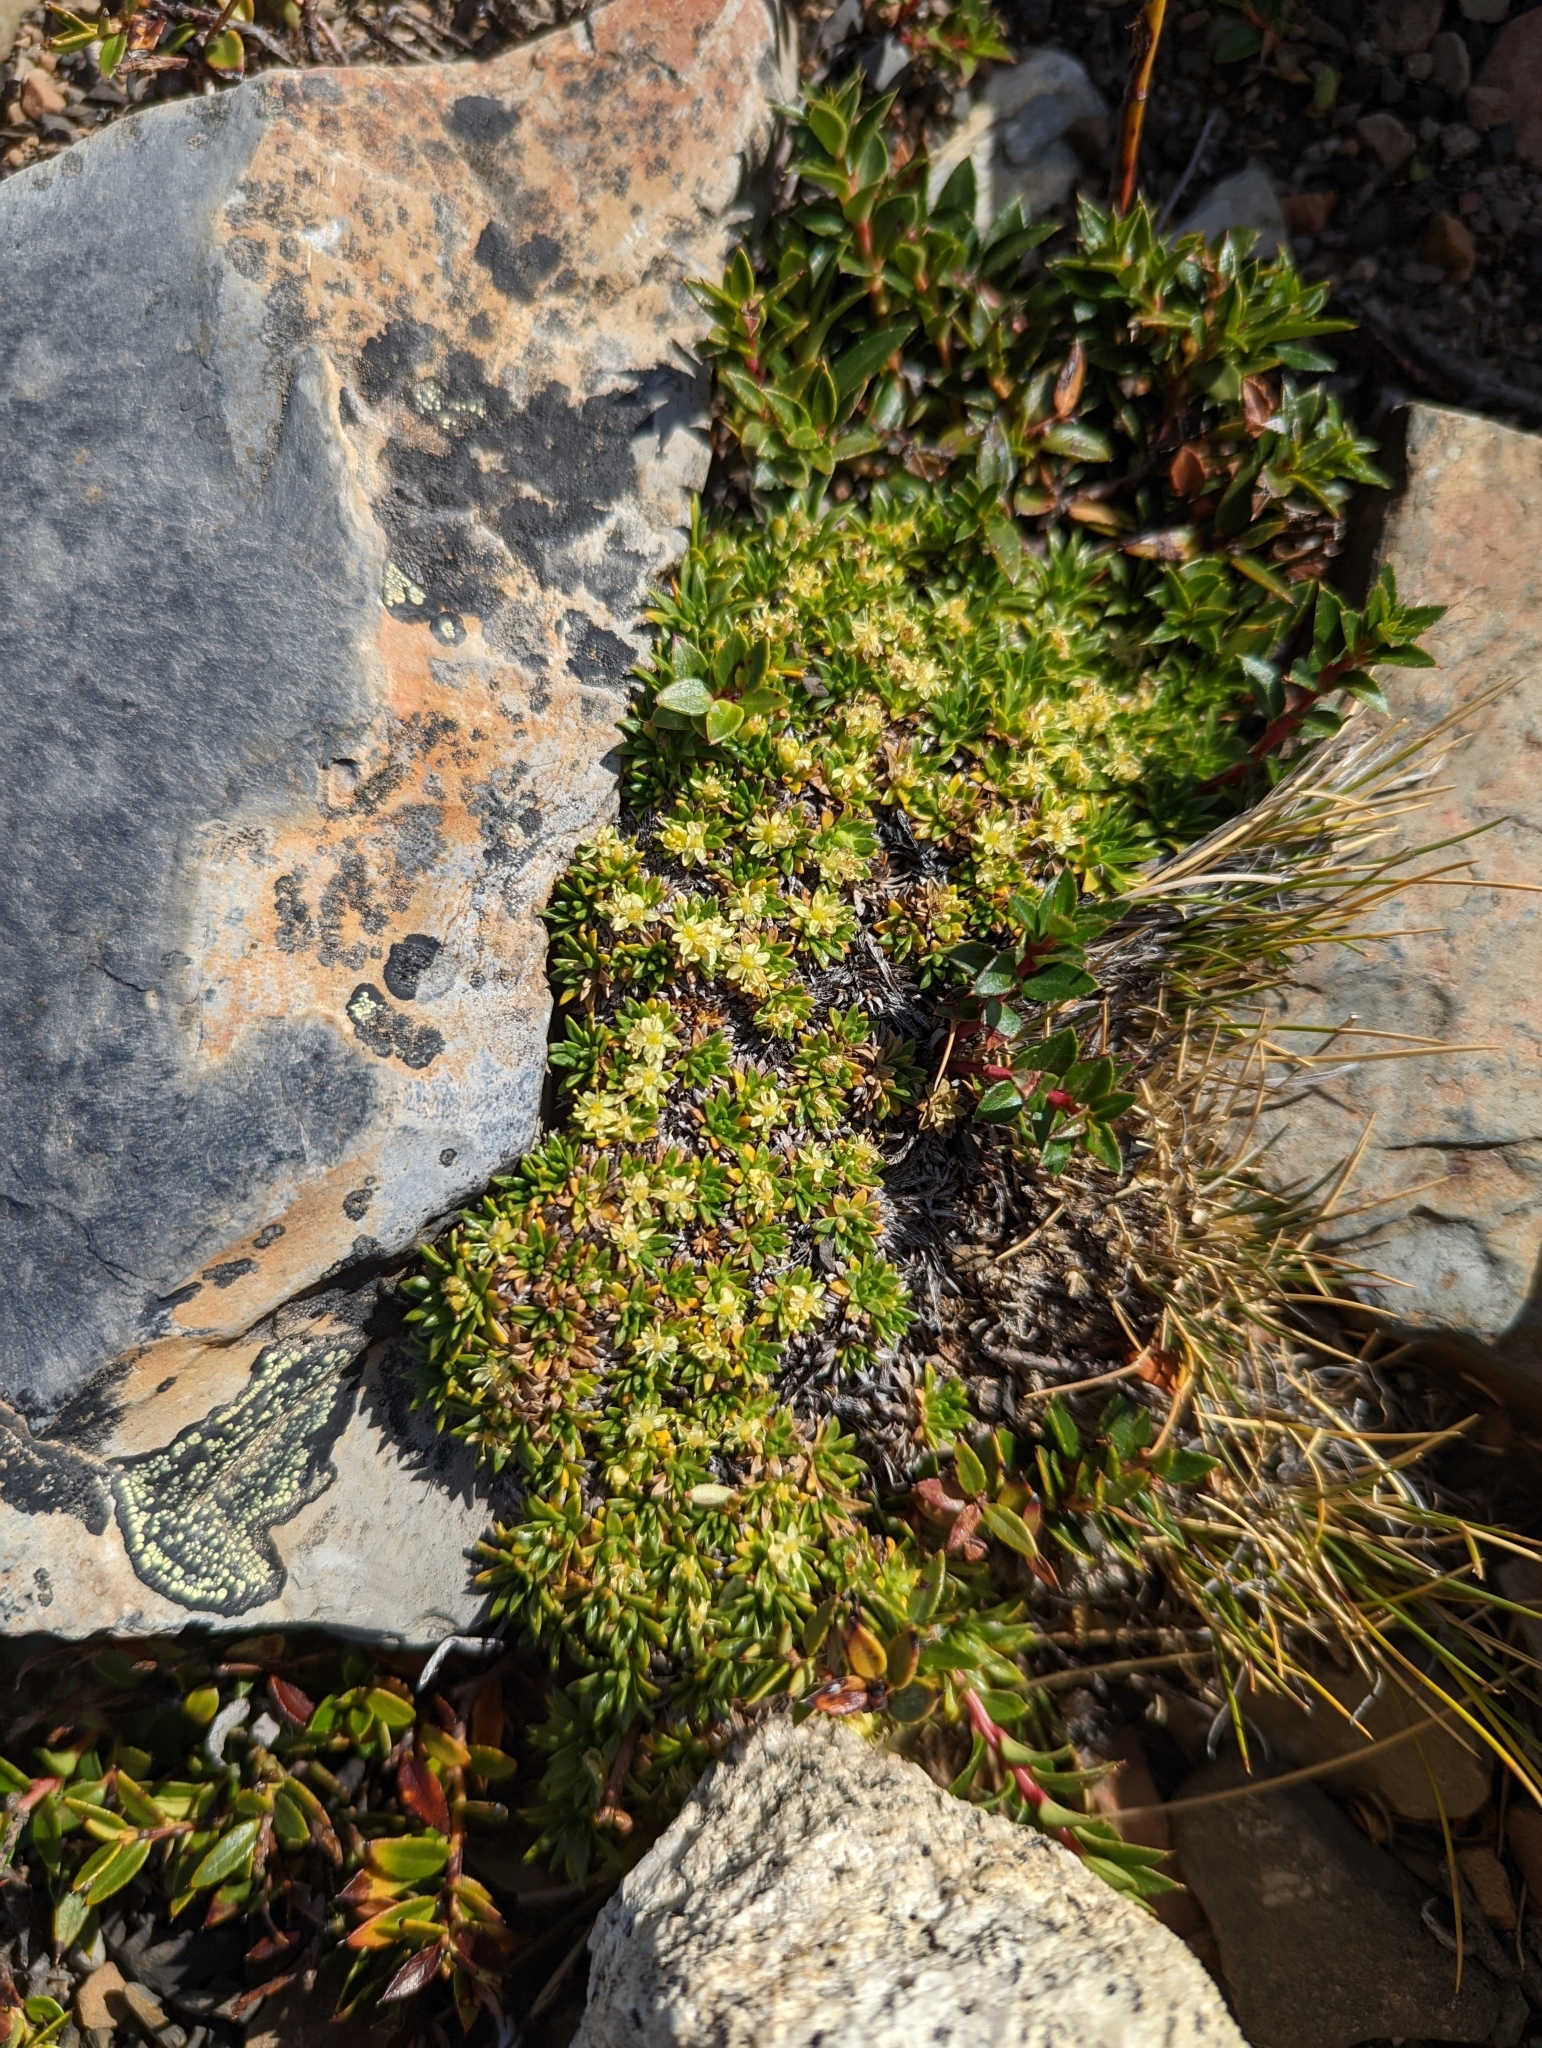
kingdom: Plantae
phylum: Tracheophyta
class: Magnoliopsida
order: Apiales
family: Apiaceae
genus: Azorella
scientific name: Azorella monantha
